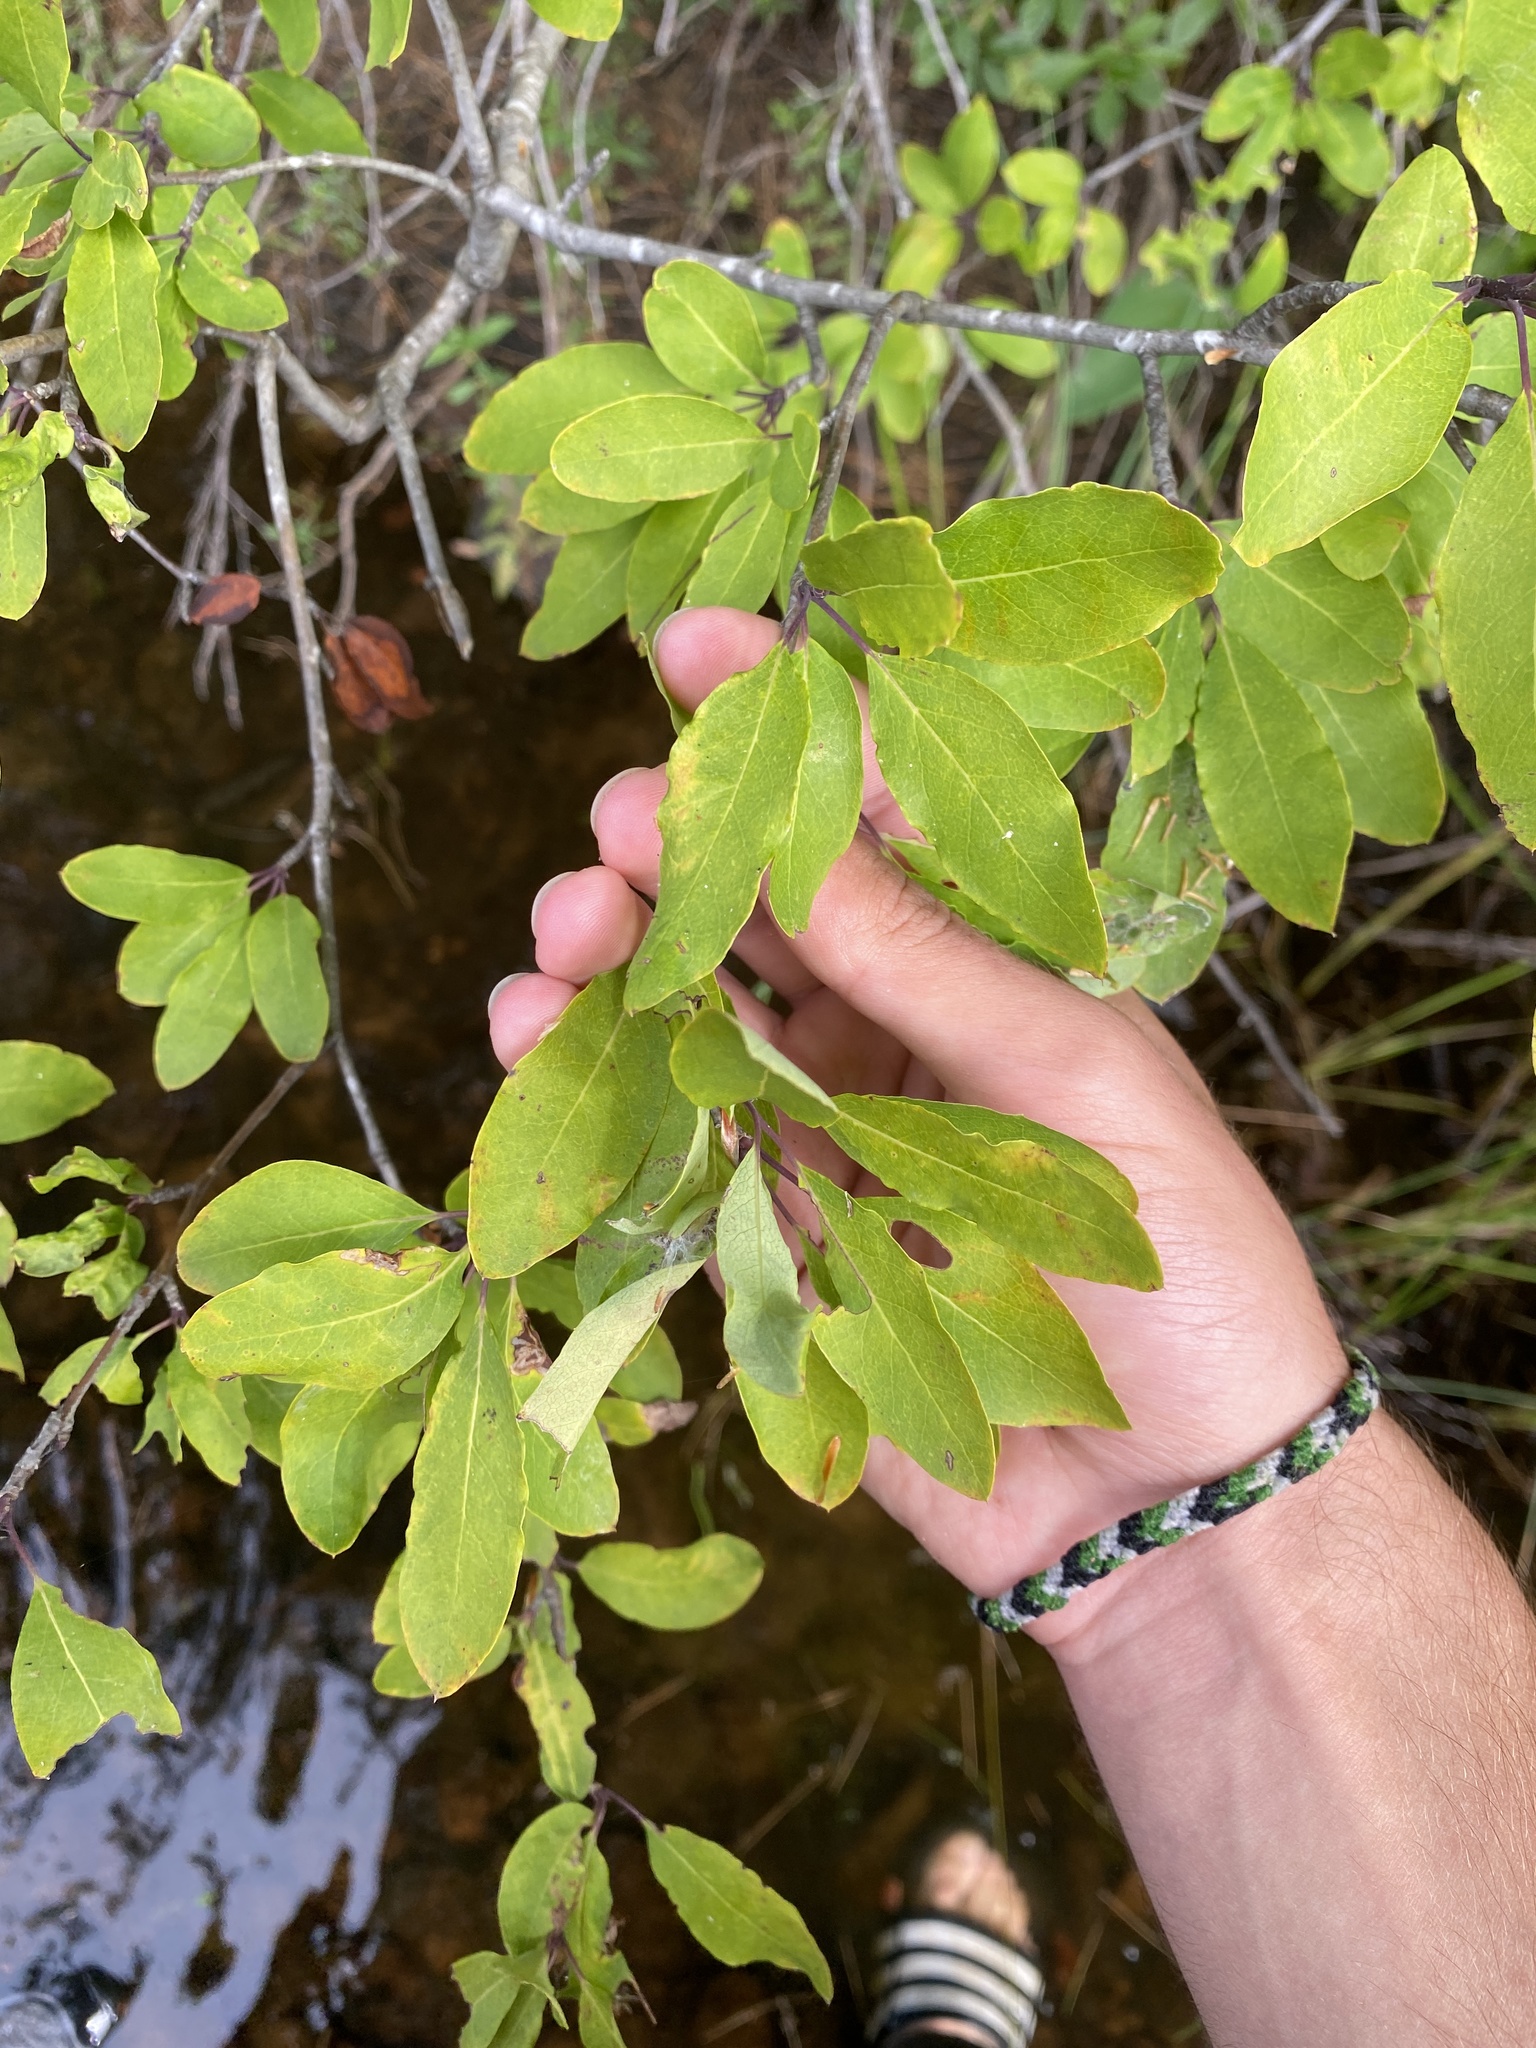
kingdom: Plantae
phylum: Tracheophyta
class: Magnoliopsida
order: Aquifoliales
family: Aquifoliaceae
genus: Ilex
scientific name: Ilex mucronata
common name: Catberry
